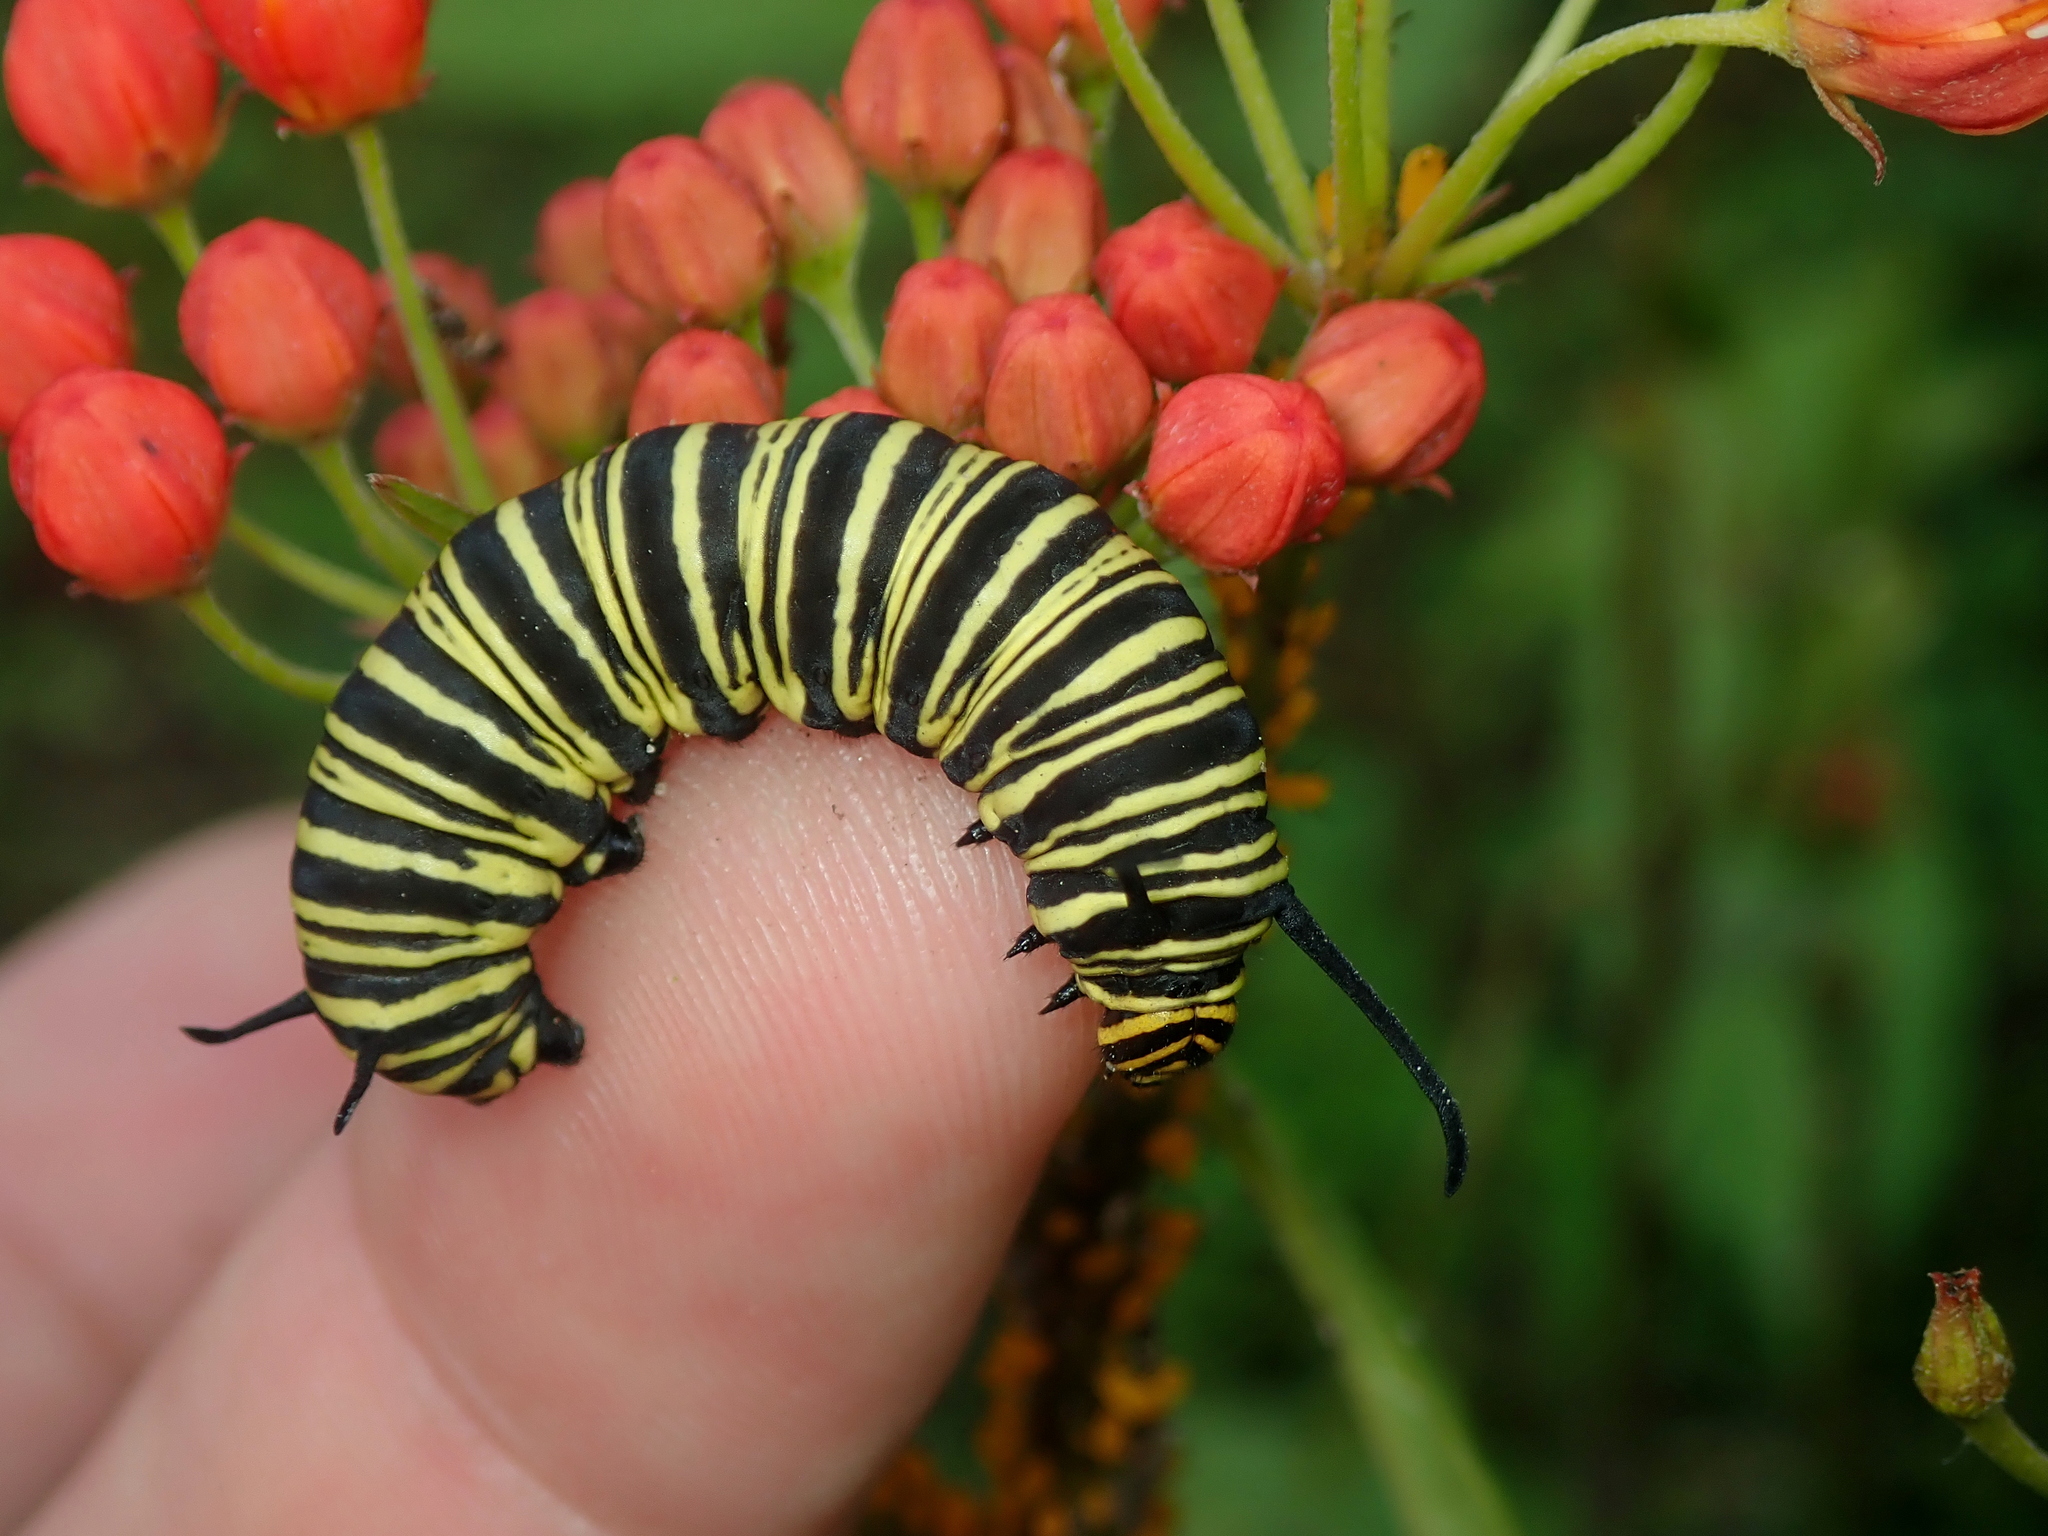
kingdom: Animalia
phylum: Arthropoda
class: Insecta
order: Lepidoptera
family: Nymphalidae
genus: Danaus
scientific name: Danaus erippus
